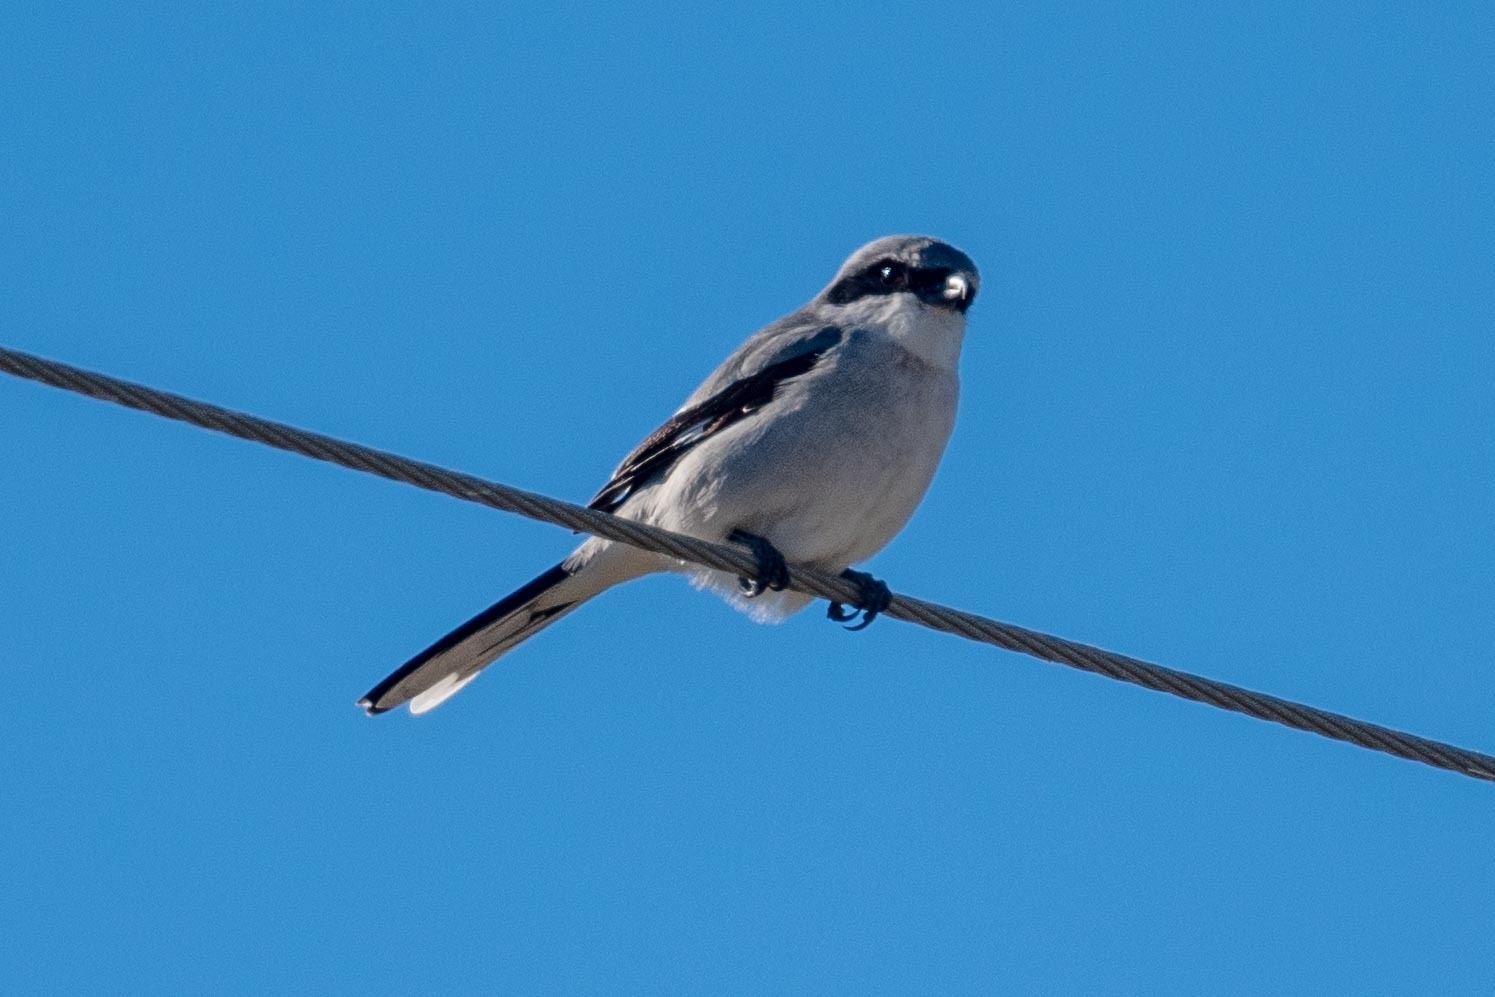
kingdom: Animalia
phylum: Chordata
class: Aves
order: Passeriformes
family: Laniidae
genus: Lanius
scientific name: Lanius ludovicianus
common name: Loggerhead shrike
